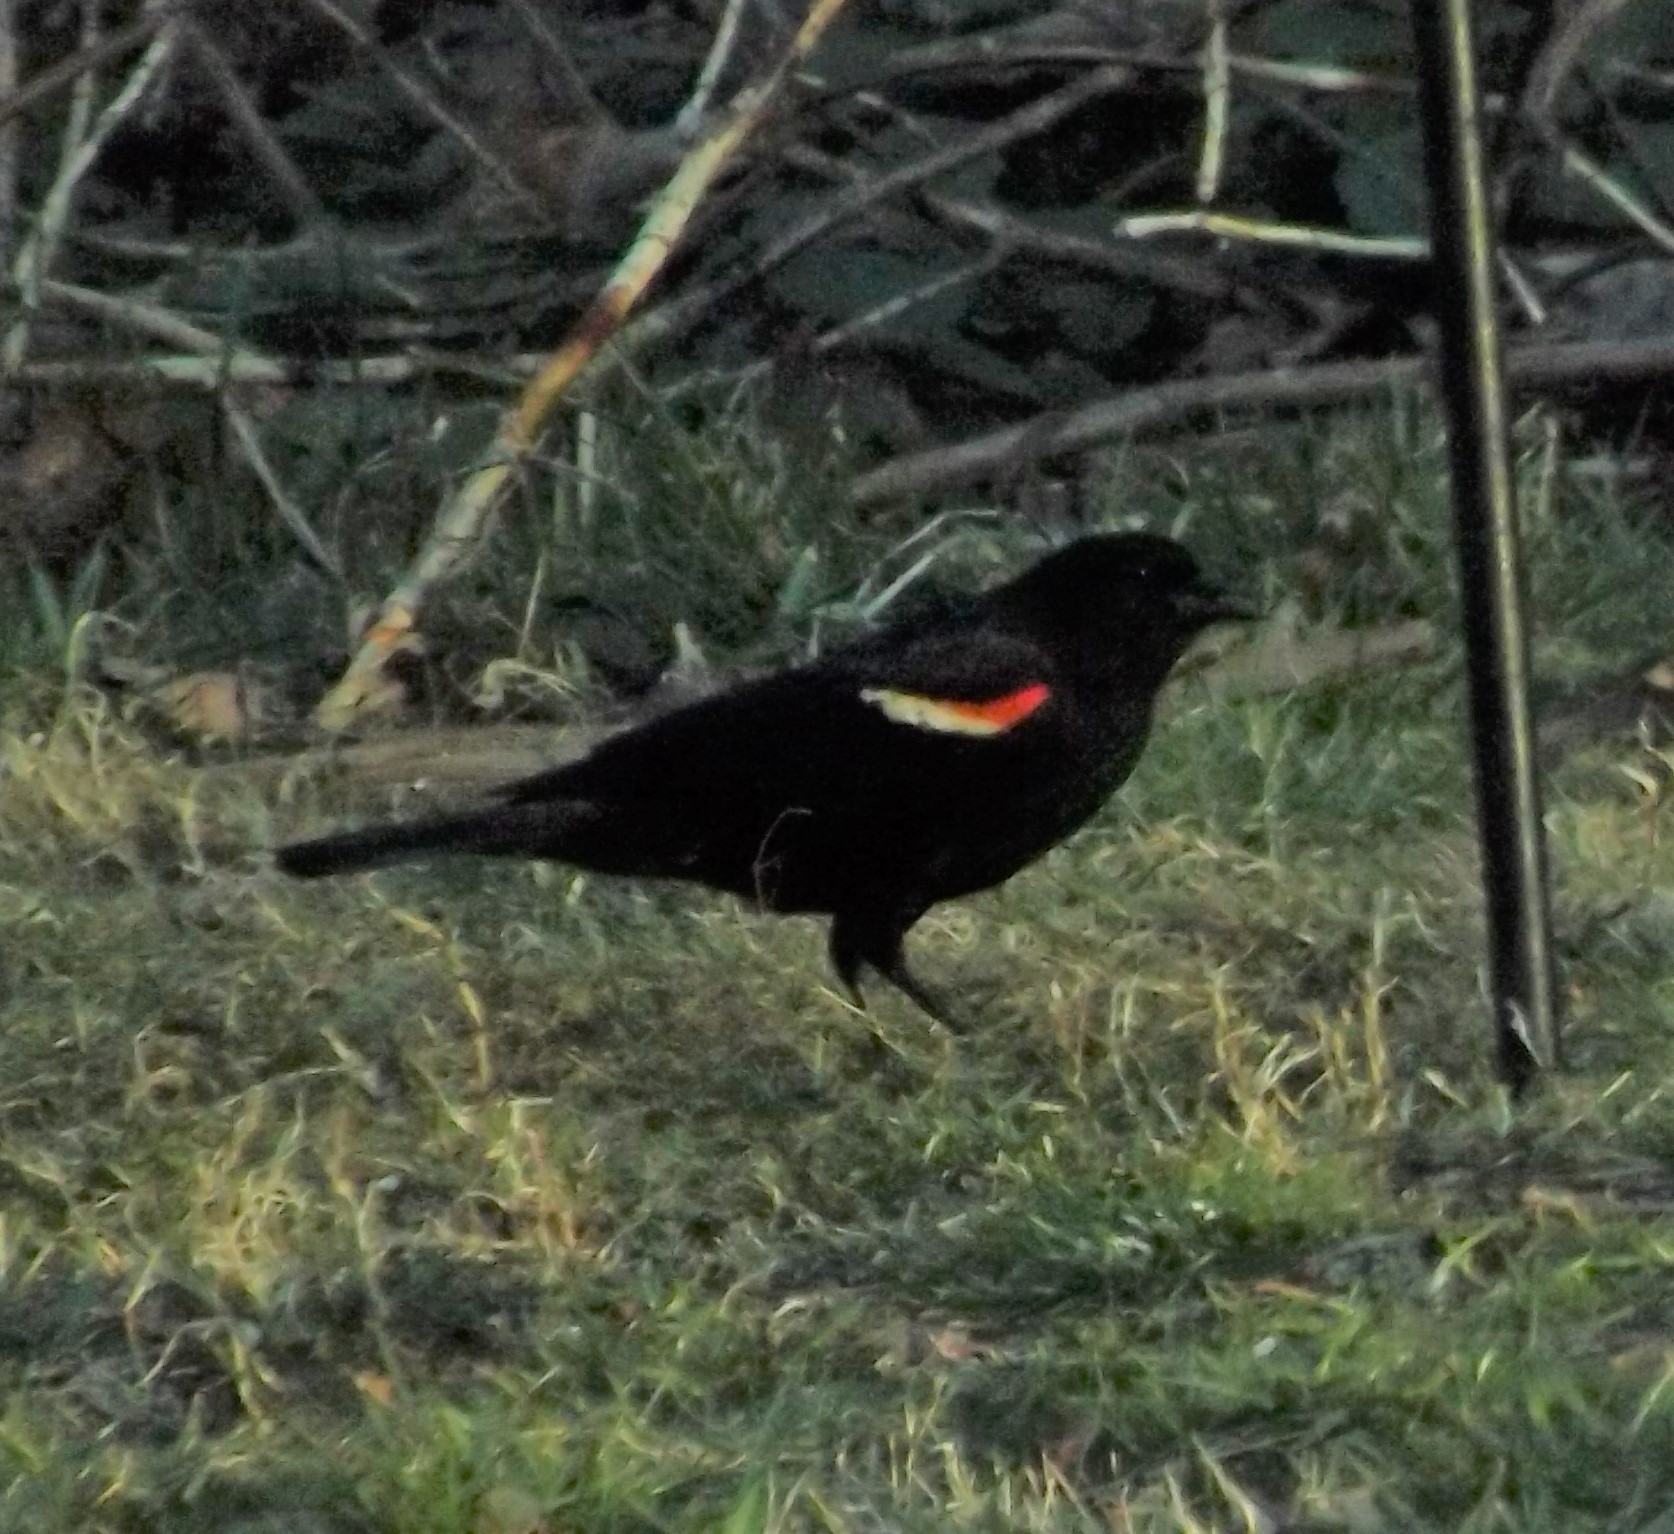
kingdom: Animalia
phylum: Chordata
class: Aves
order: Passeriformes
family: Icteridae
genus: Agelaius
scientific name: Agelaius phoeniceus
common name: Red-winged blackbird
